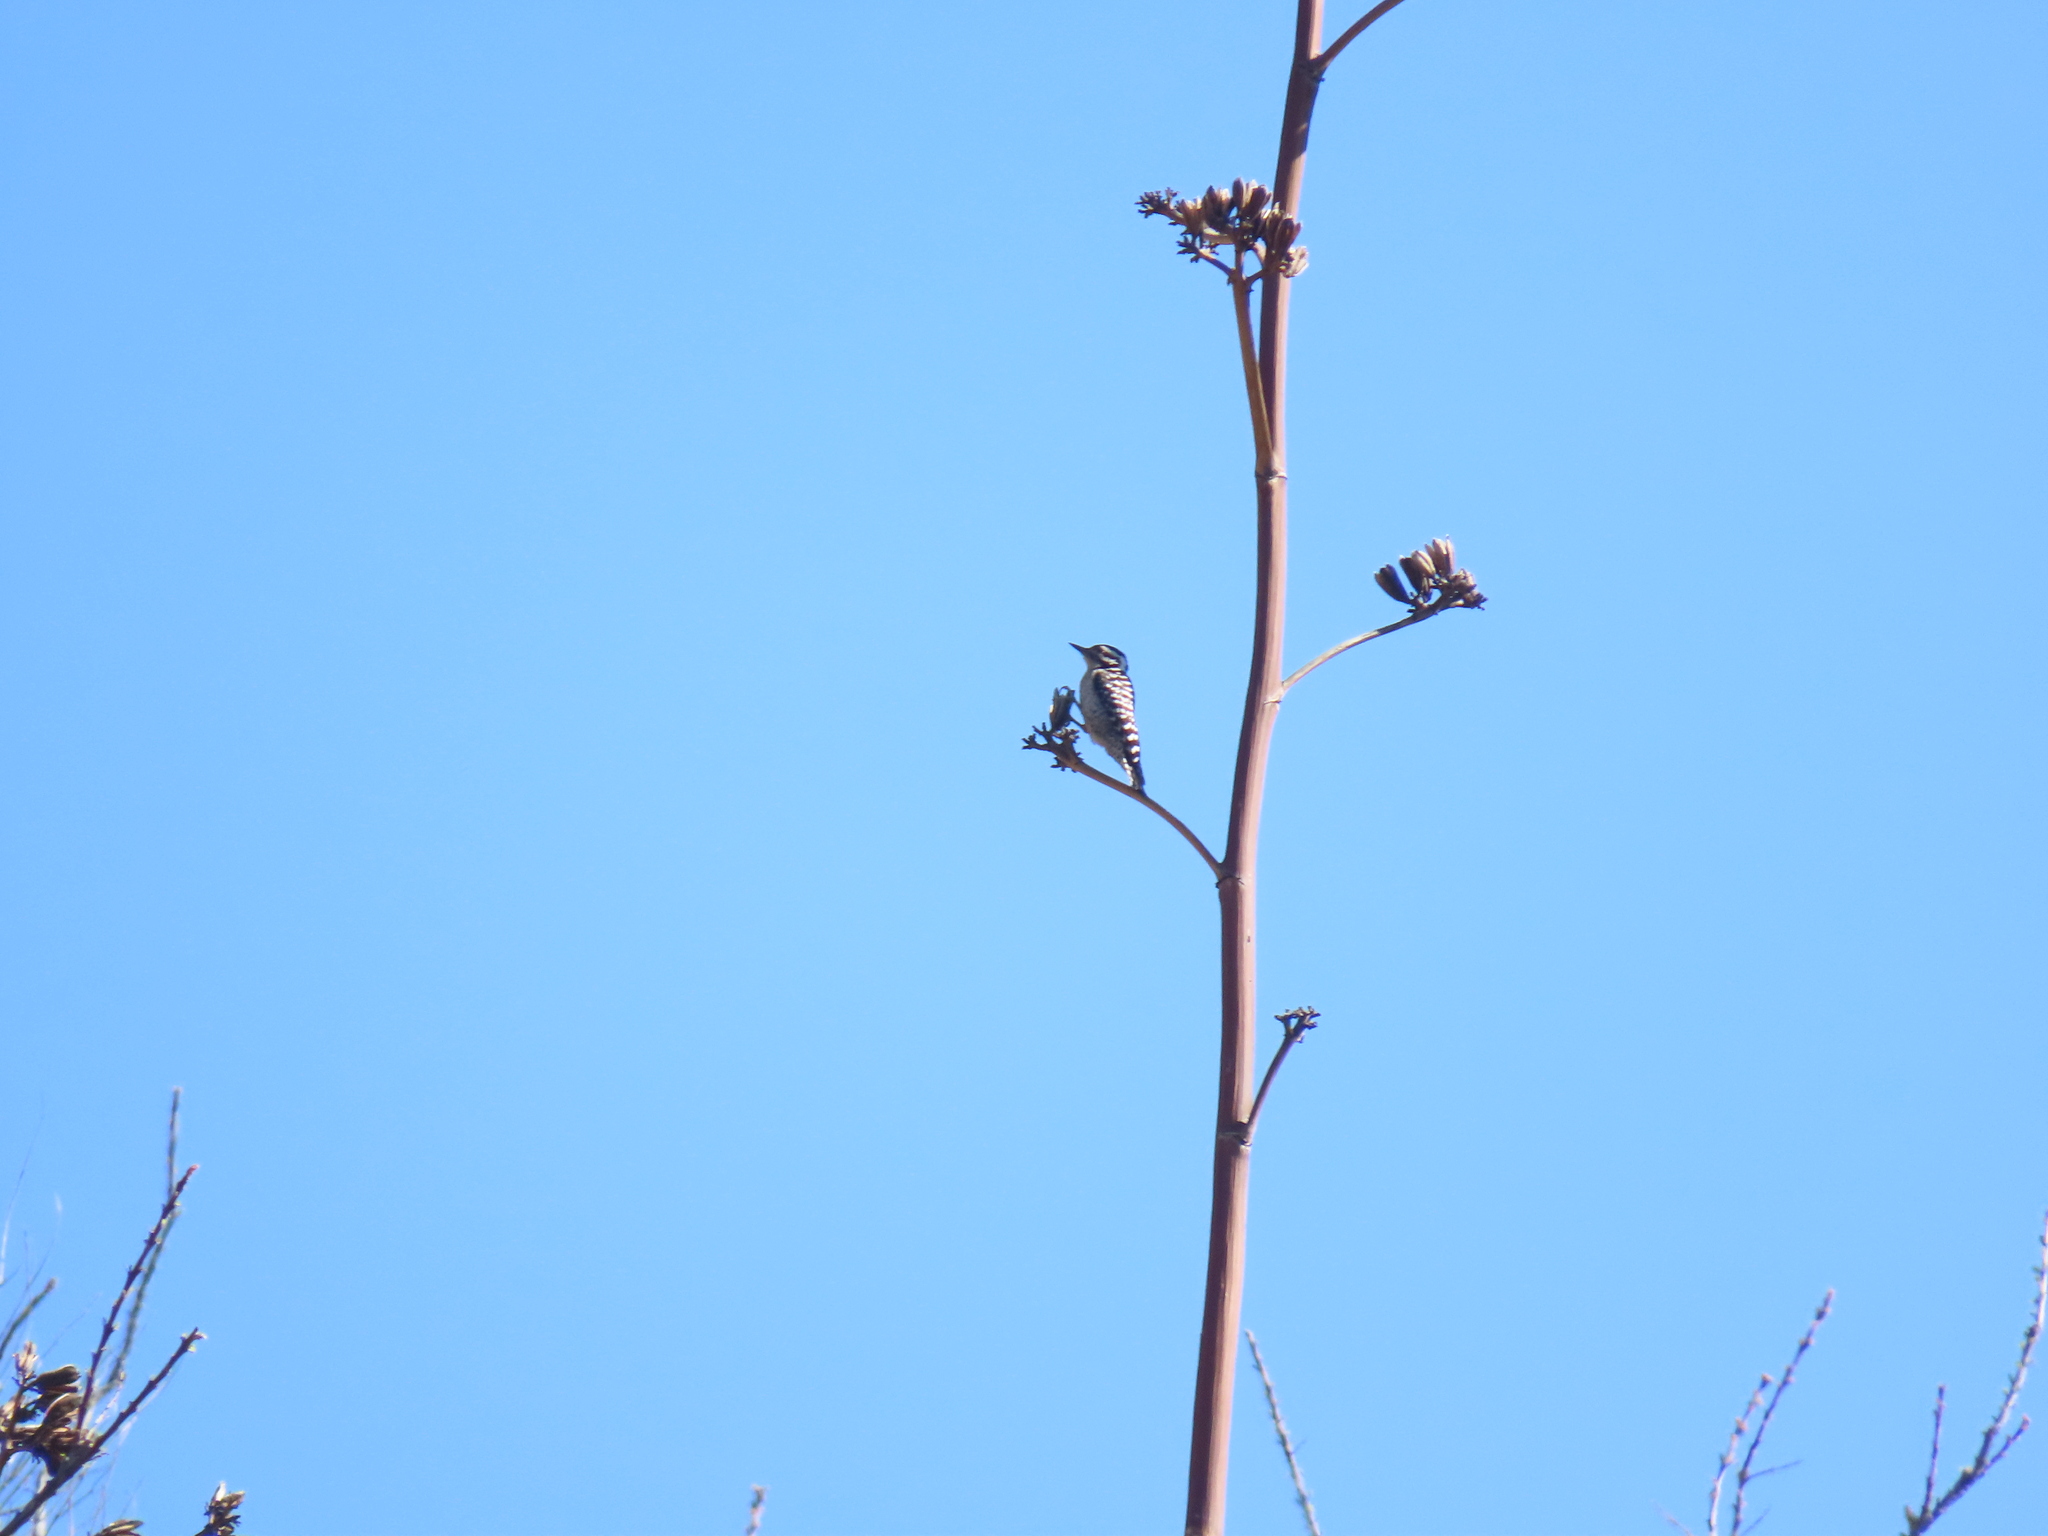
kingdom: Animalia
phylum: Chordata
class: Aves
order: Piciformes
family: Picidae
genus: Dryobates
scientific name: Dryobates scalaris
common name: Ladder-backed woodpecker
